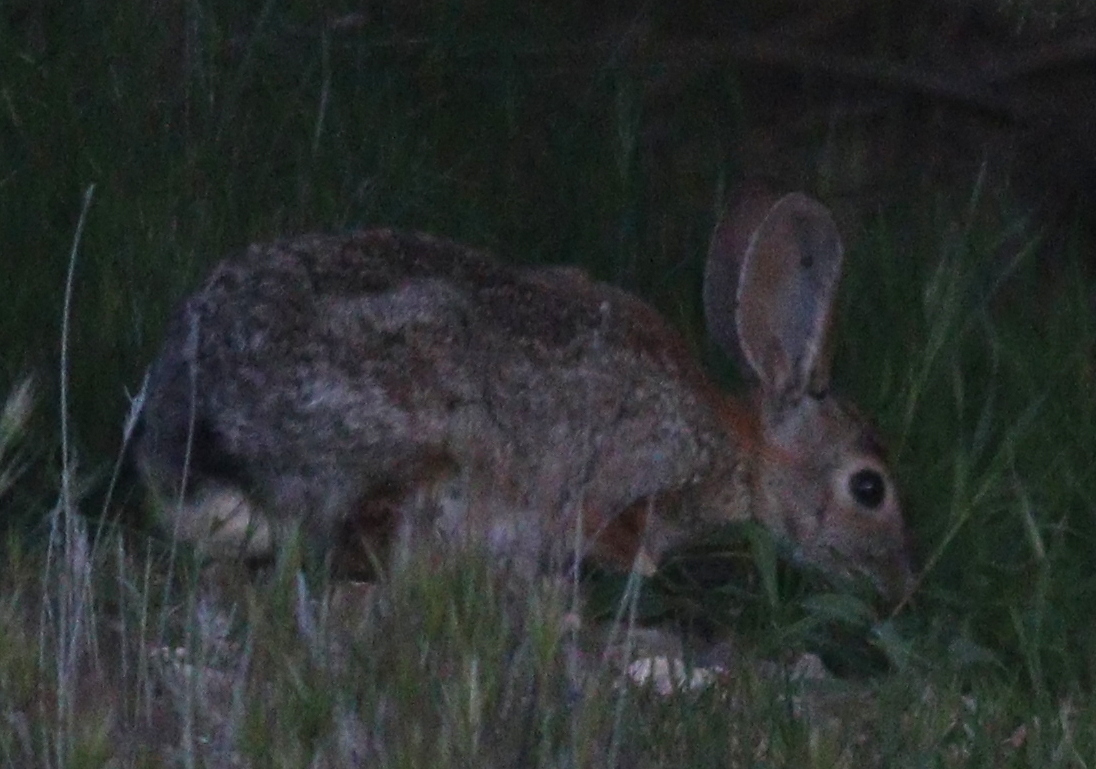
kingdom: Animalia
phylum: Chordata
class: Mammalia
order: Lagomorpha
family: Leporidae
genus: Sylvilagus
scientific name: Sylvilagus audubonii
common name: Desert cottontail
